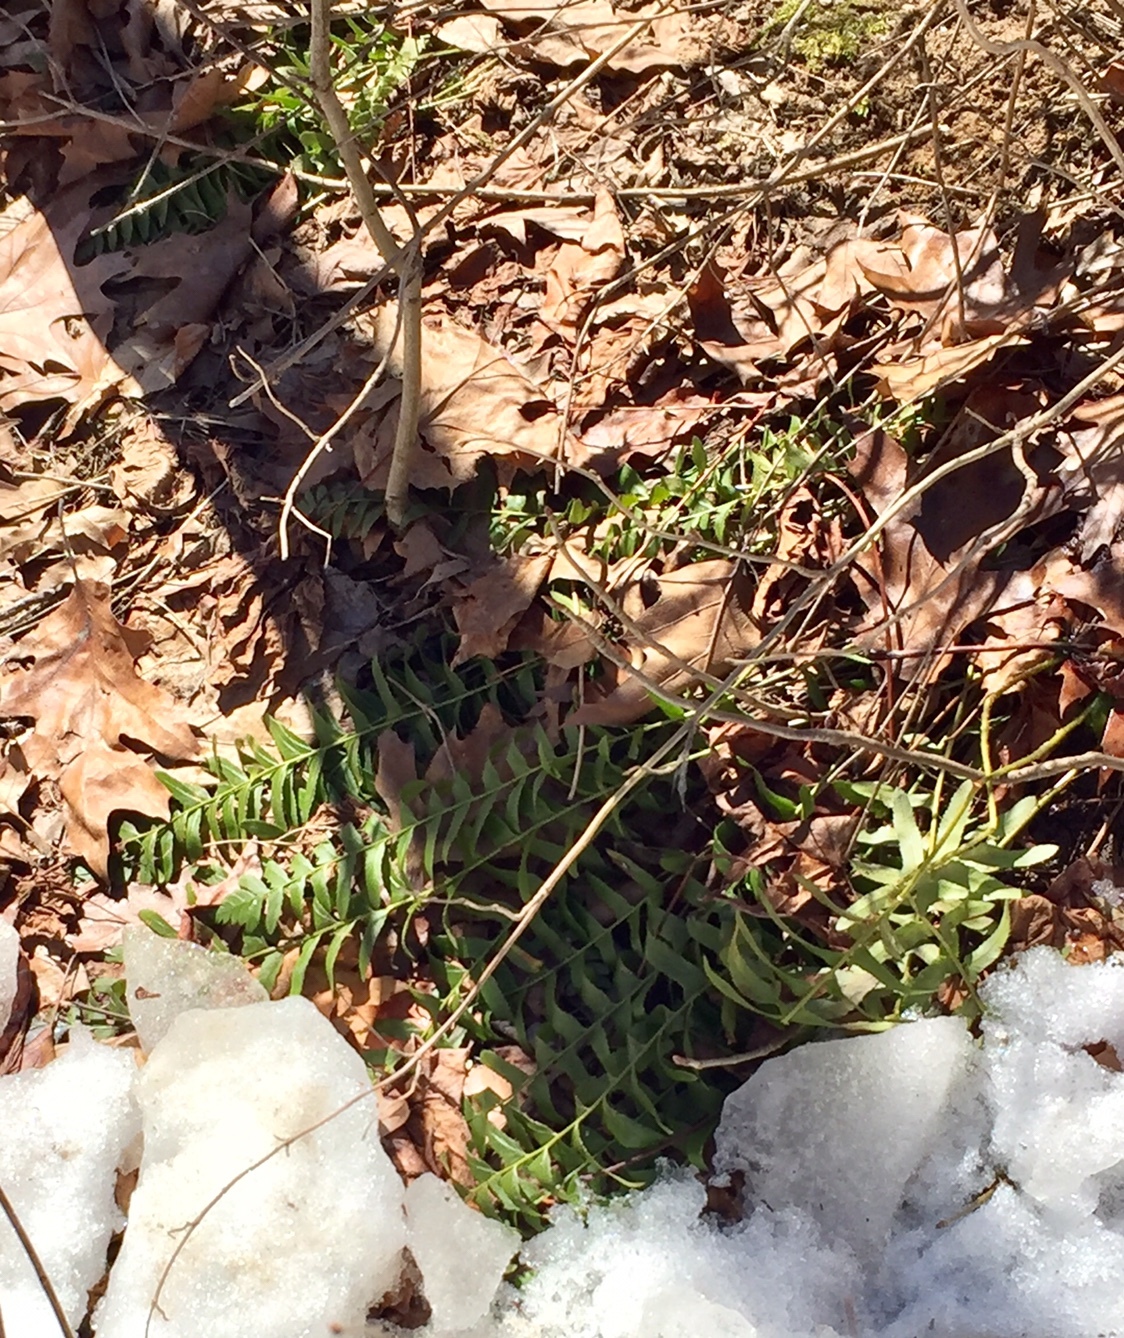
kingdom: Plantae
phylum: Tracheophyta
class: Polypodiopsida
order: Polypodiales
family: Dryopteridaceae
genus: Polystichum
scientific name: Polystichum acrostichoides
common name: Christmas fern
